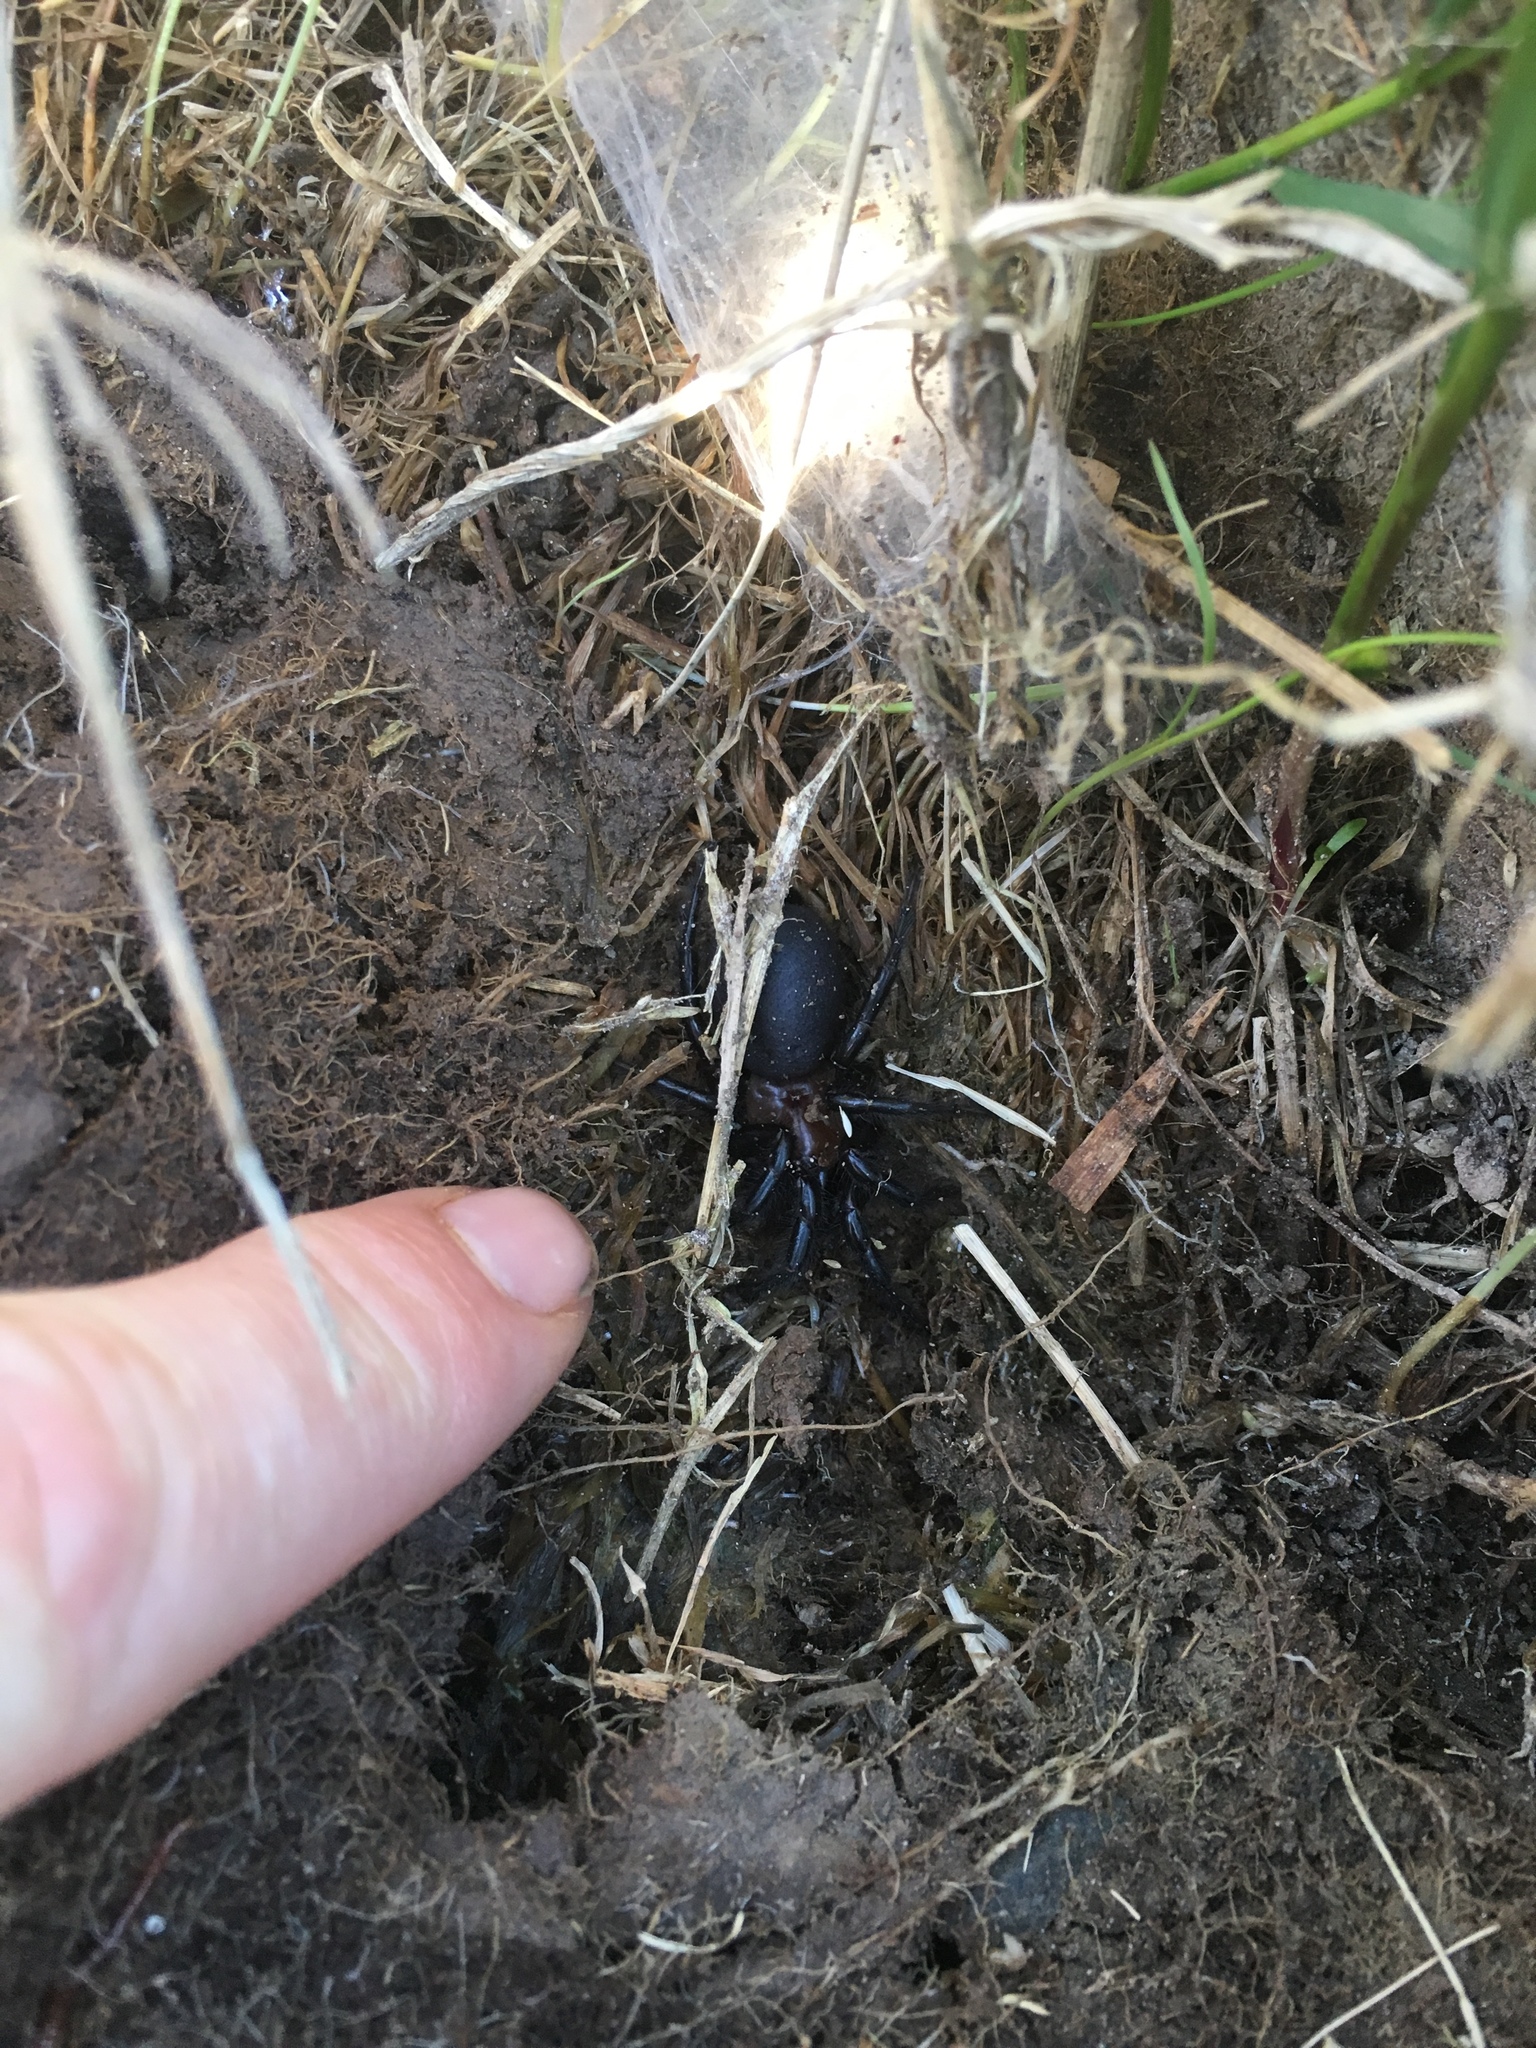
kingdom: Animalia
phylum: Arthropoda
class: Arachnida
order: Araneae
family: Porrhothelidae
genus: Porrhothele
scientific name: Porrhothele antipodiana
